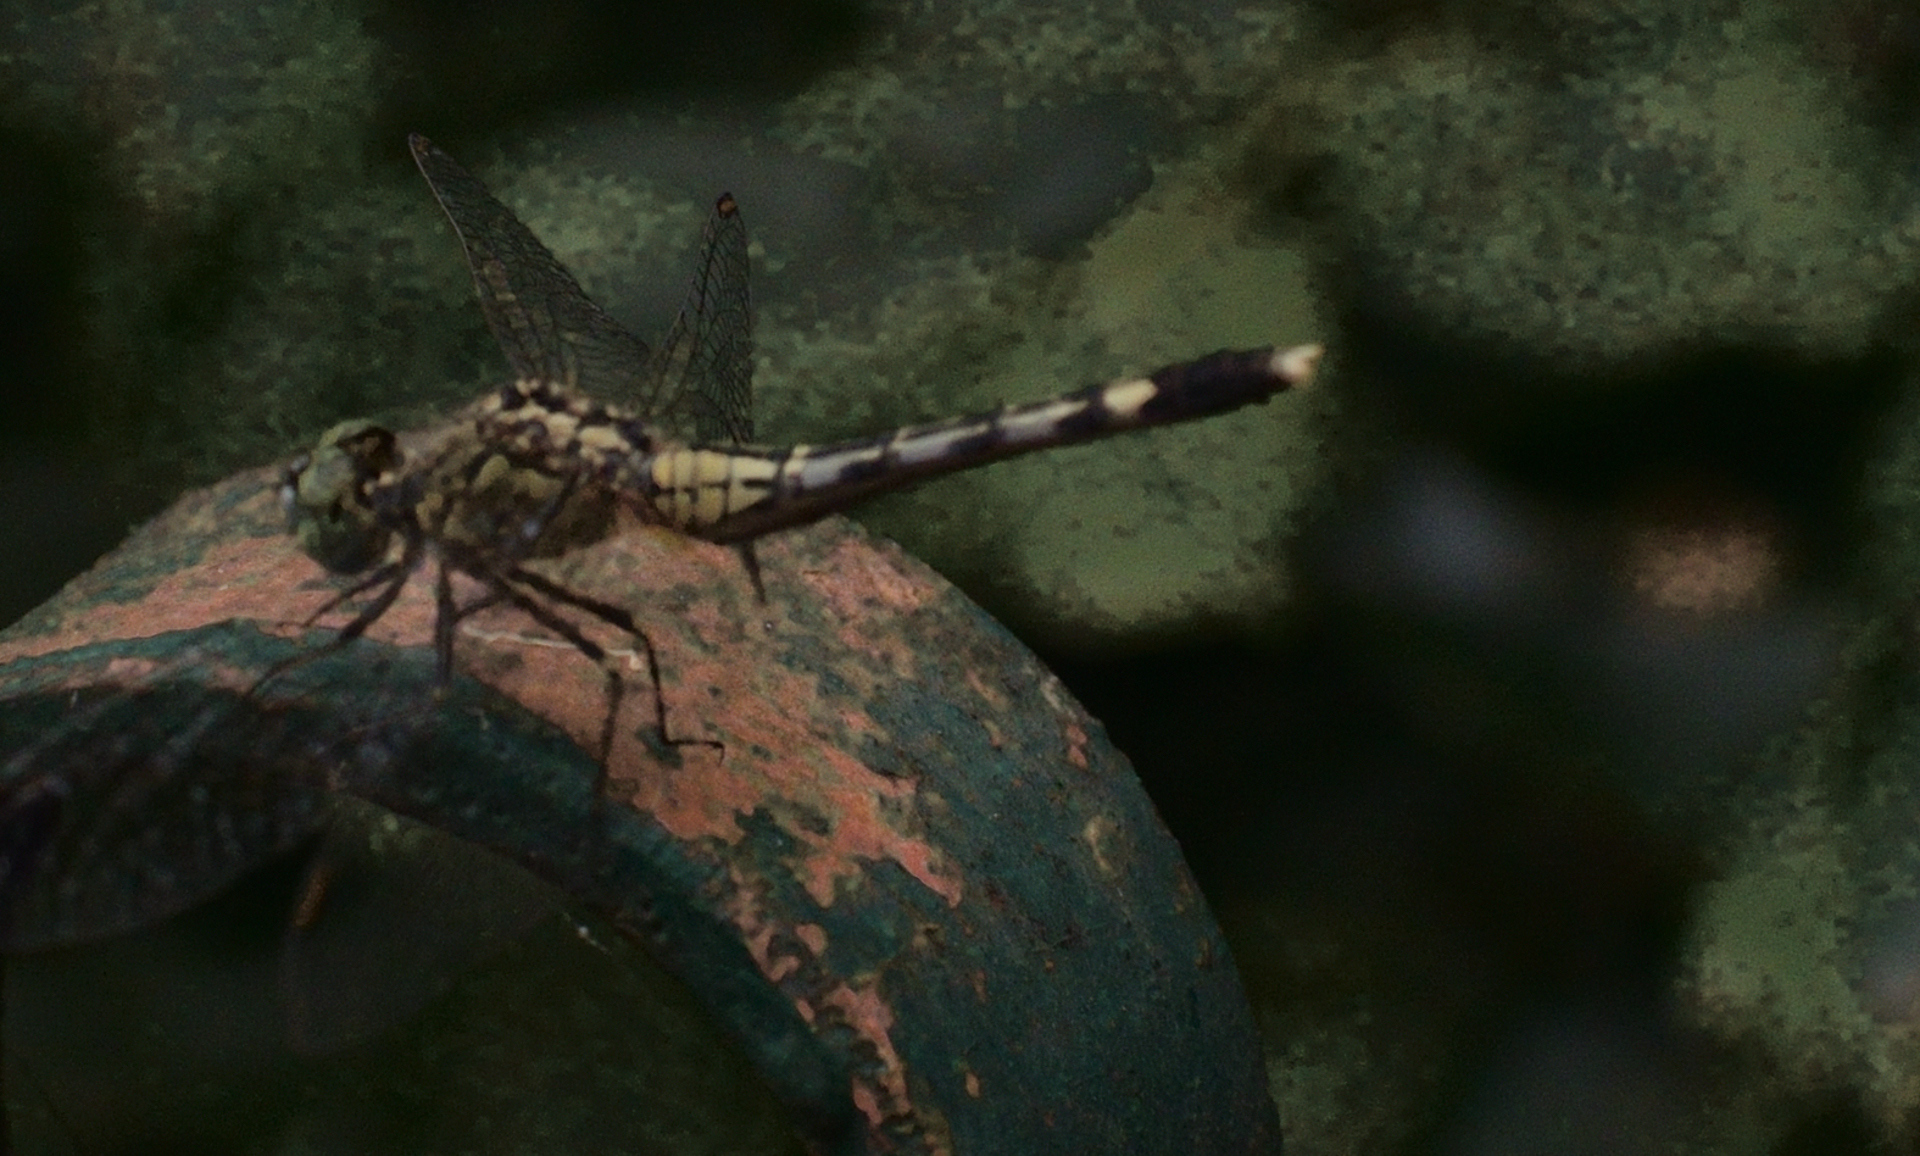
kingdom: Animalia
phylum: Arthropoda
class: Insecta
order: Odonata
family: Libellulidae
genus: Diplacodes
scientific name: Diplacodes trivialis
